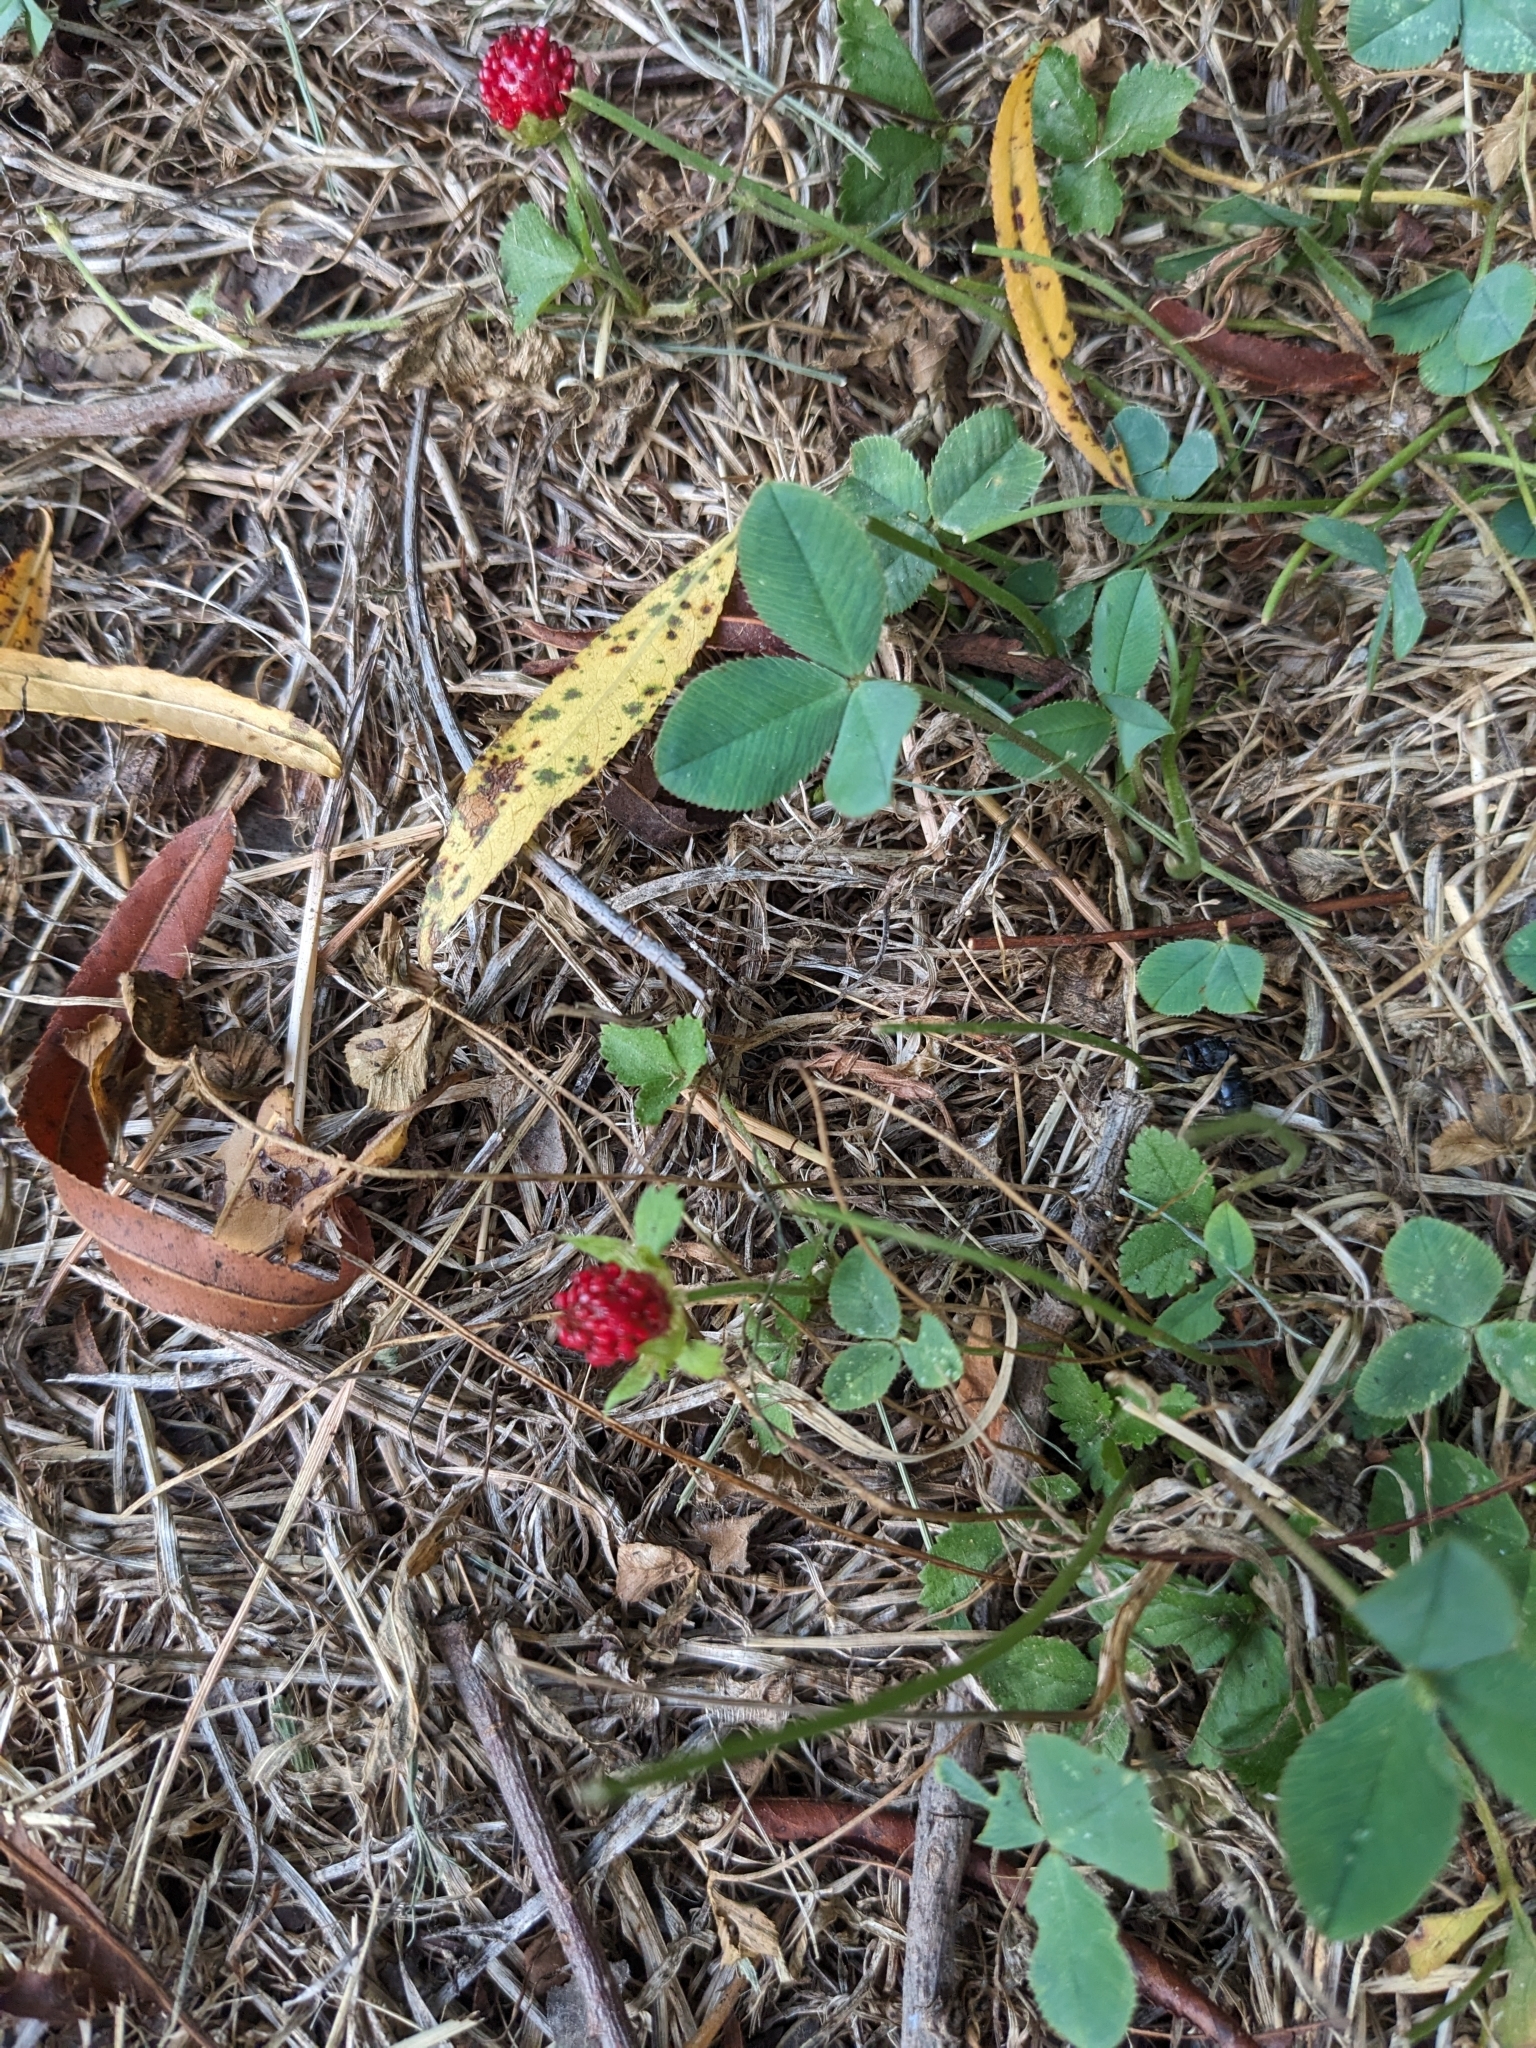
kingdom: Plantae
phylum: Tracheophyta
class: Magnoliopsida
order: Rosales
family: Rosaceae
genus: Potentilla
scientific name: Potentilla indica
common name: Yellow-flowered strawberry
